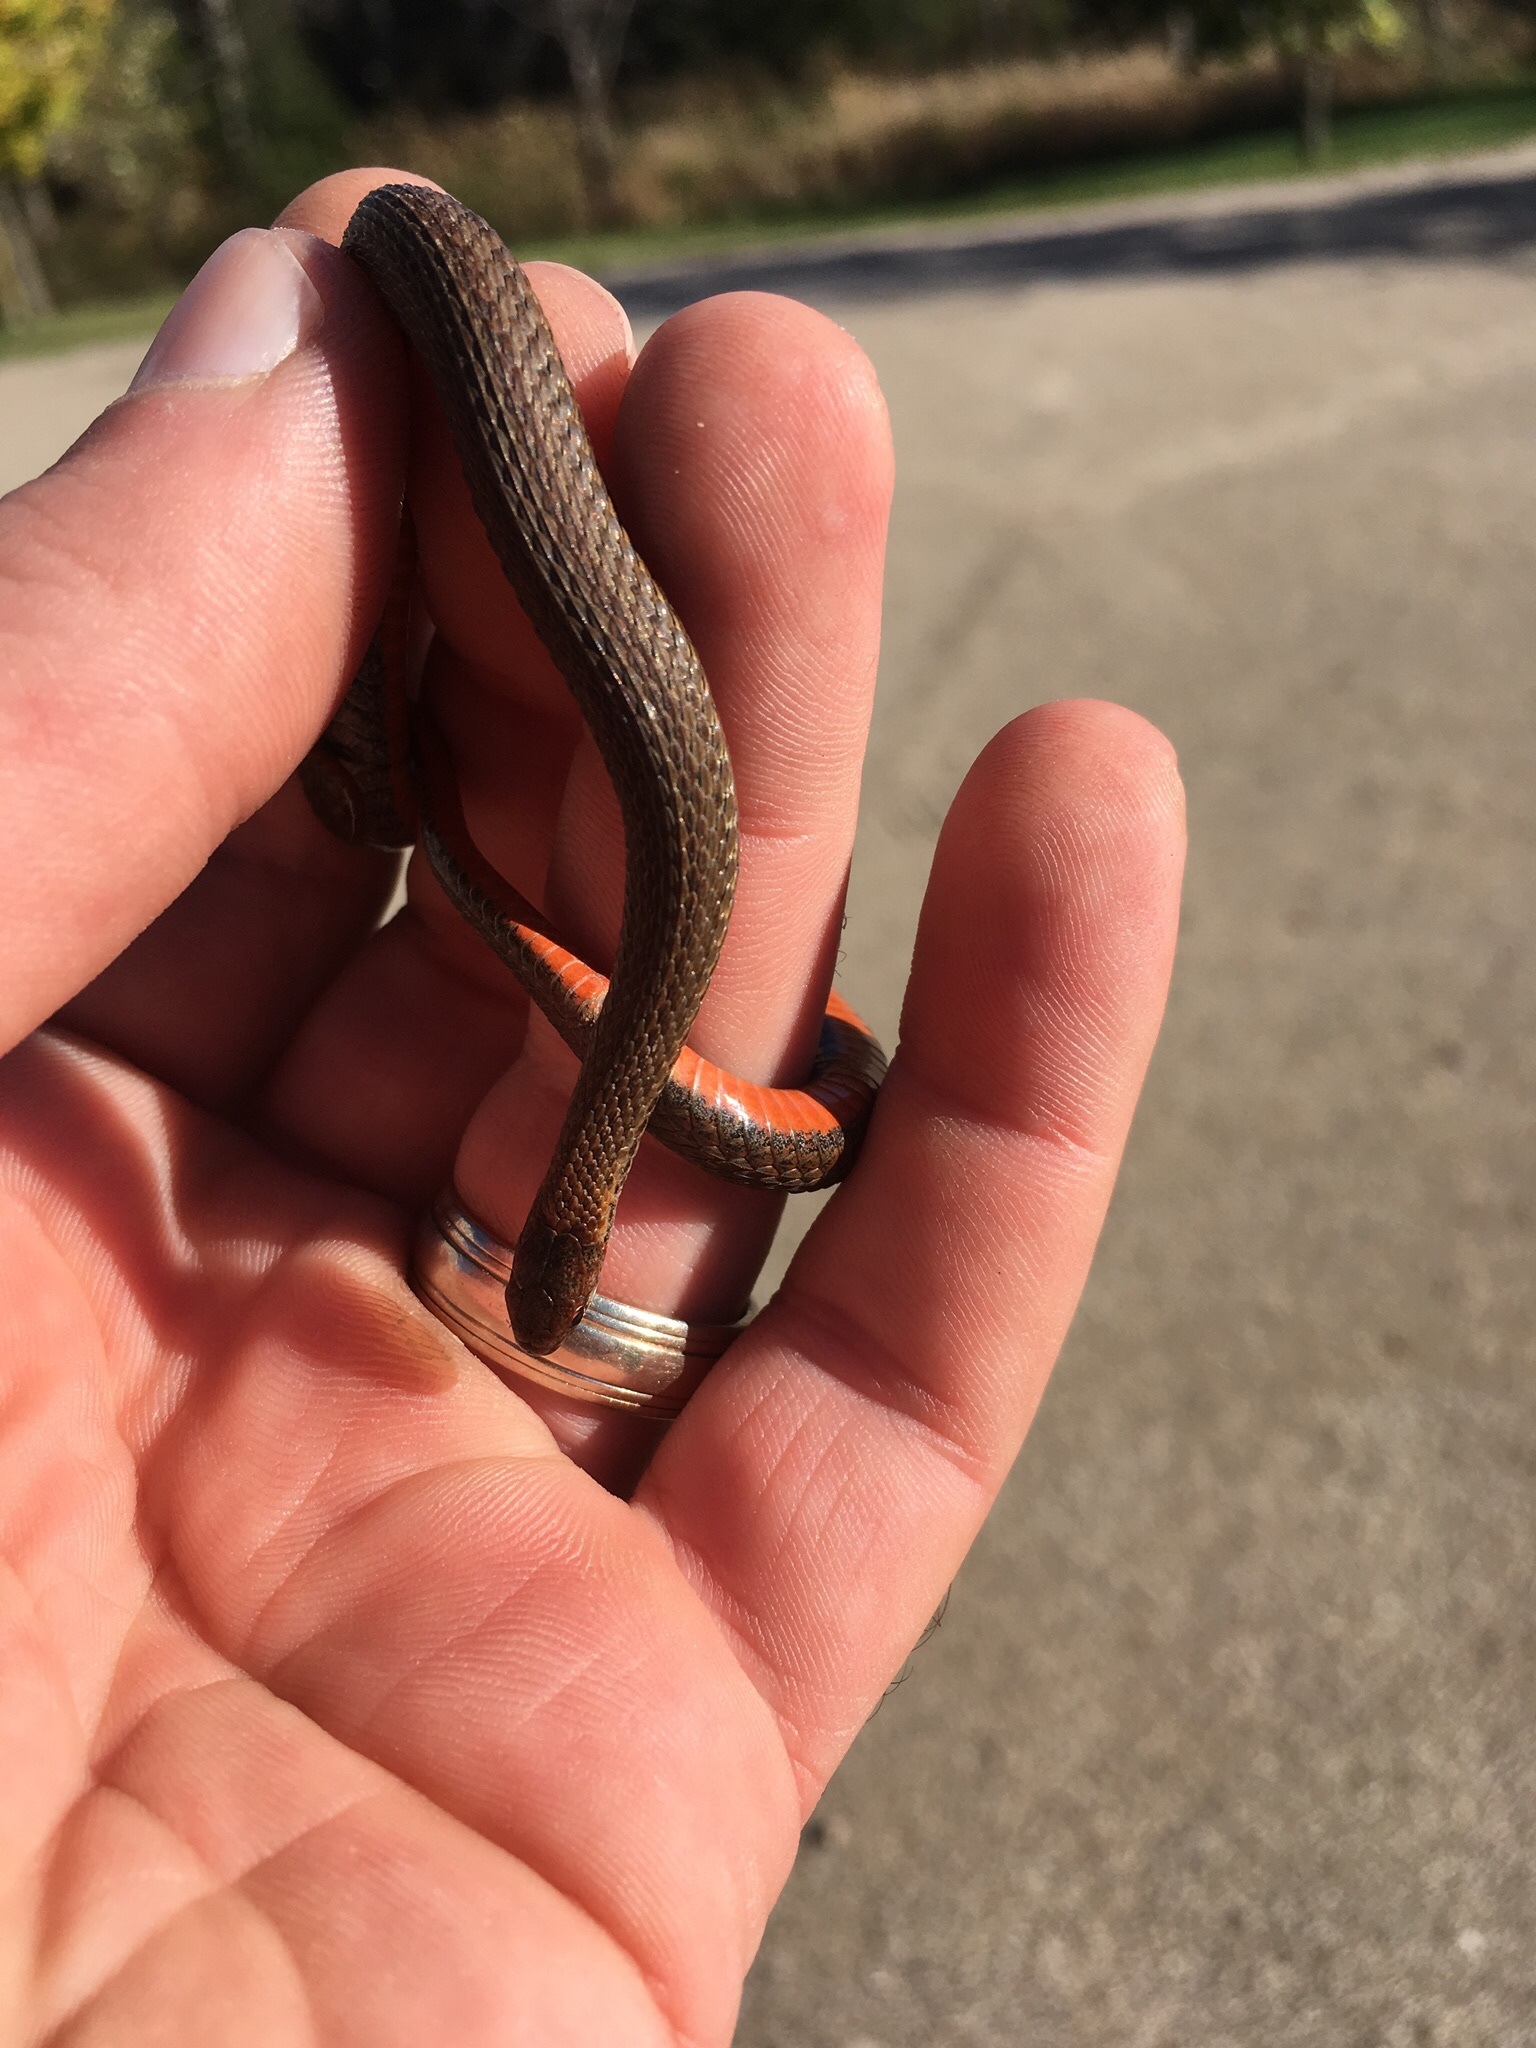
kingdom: Animalia
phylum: Chordata
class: Squamata
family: Colubridae
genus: Storeria
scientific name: Storeria occipitomaculata
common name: Redbelly snake
